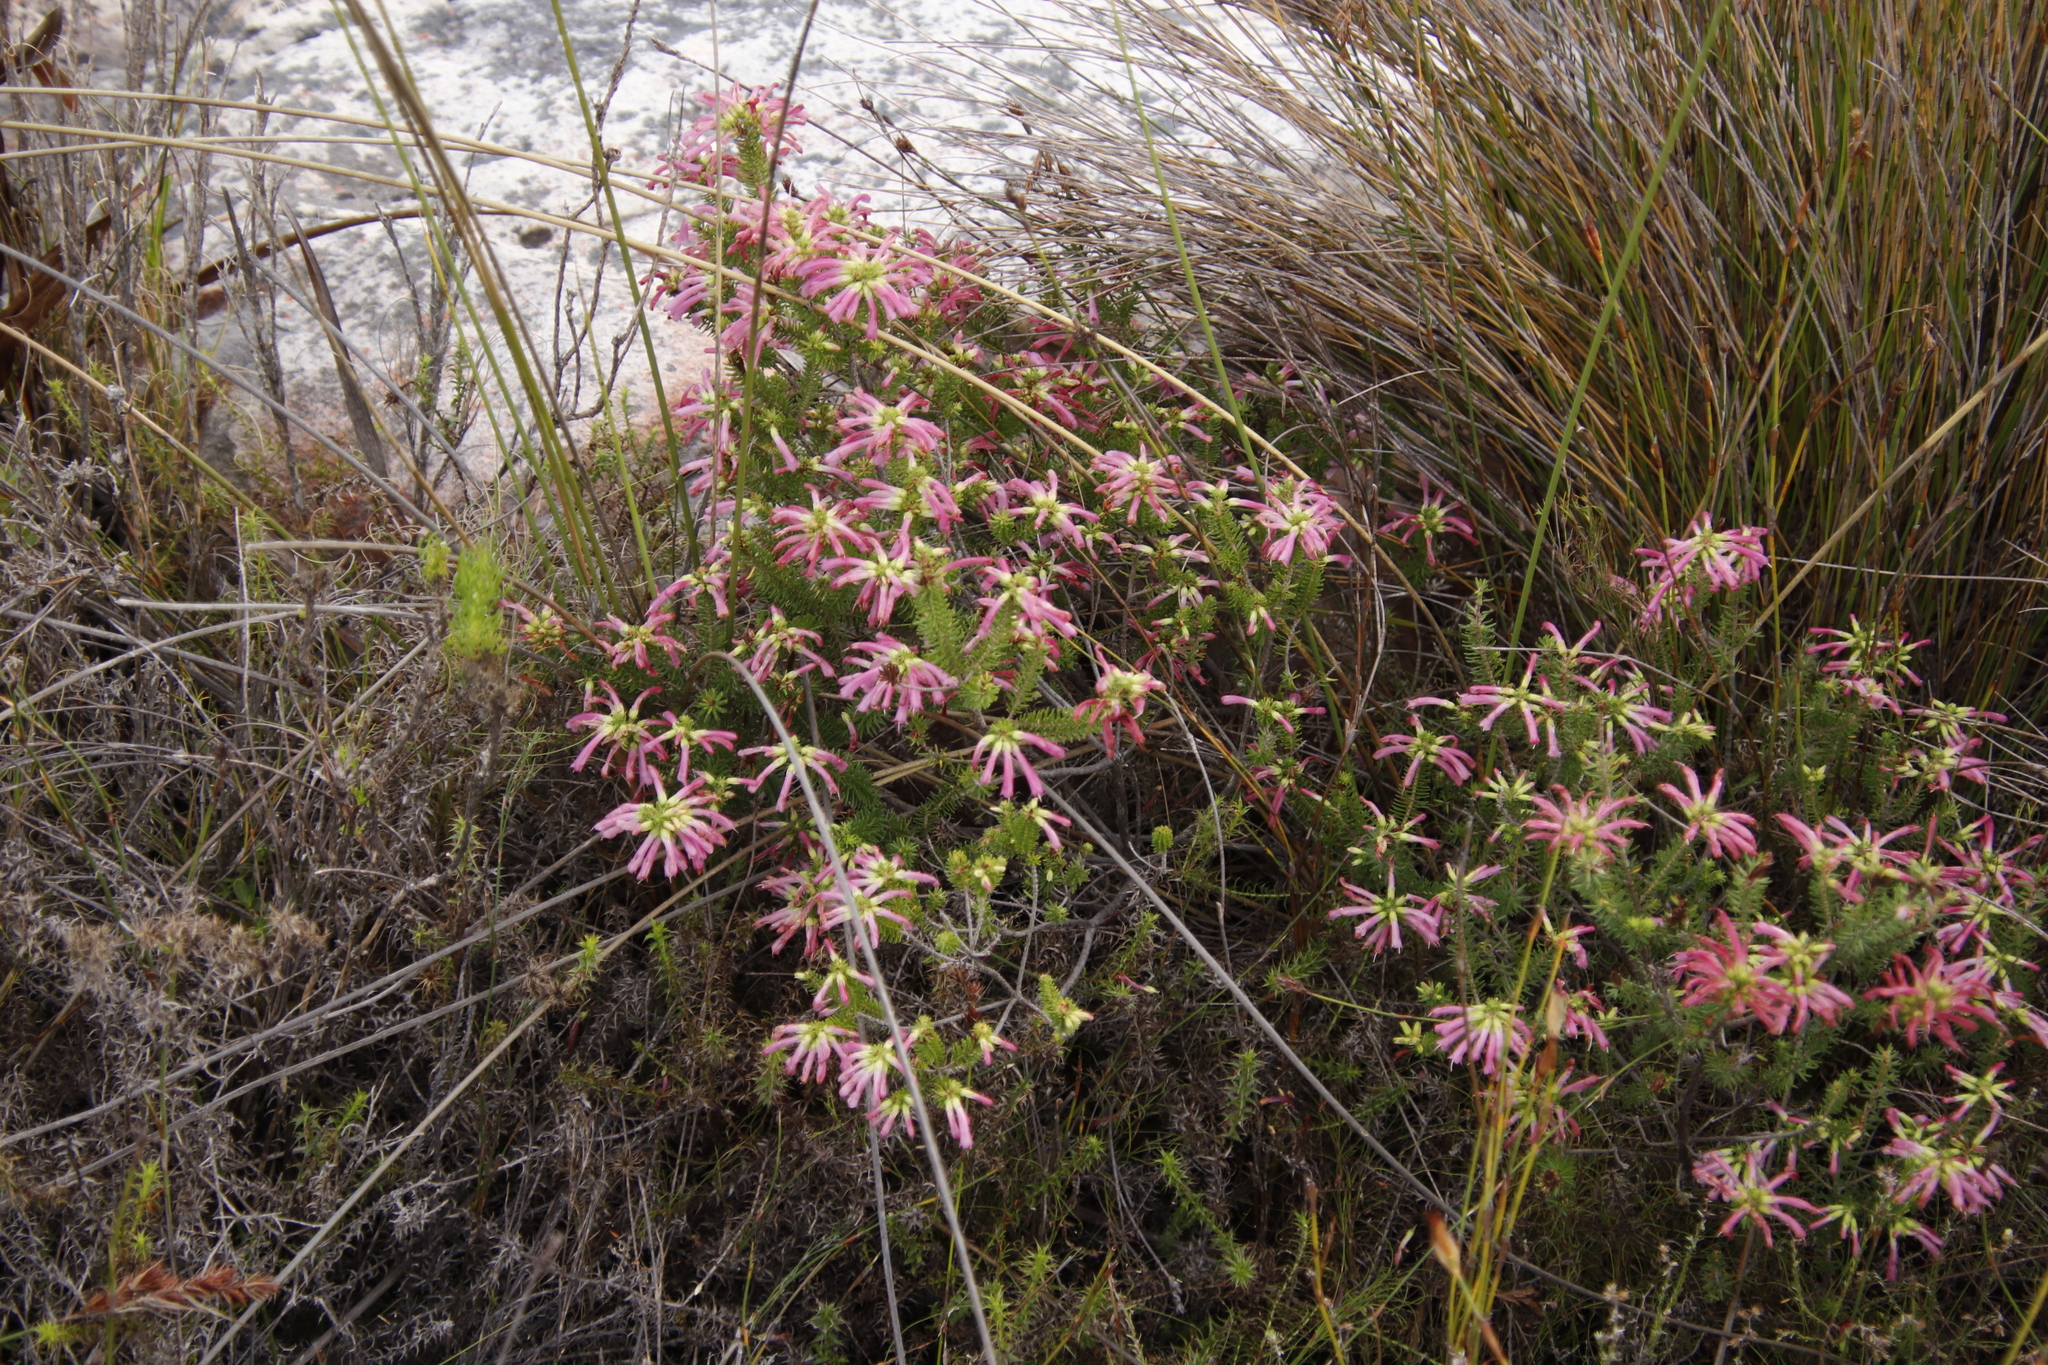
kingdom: Plantae
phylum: Tracheophyta
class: Magnoliopsida
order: Ericales
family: Ericaceae
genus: Erica
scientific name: Erica abietina
